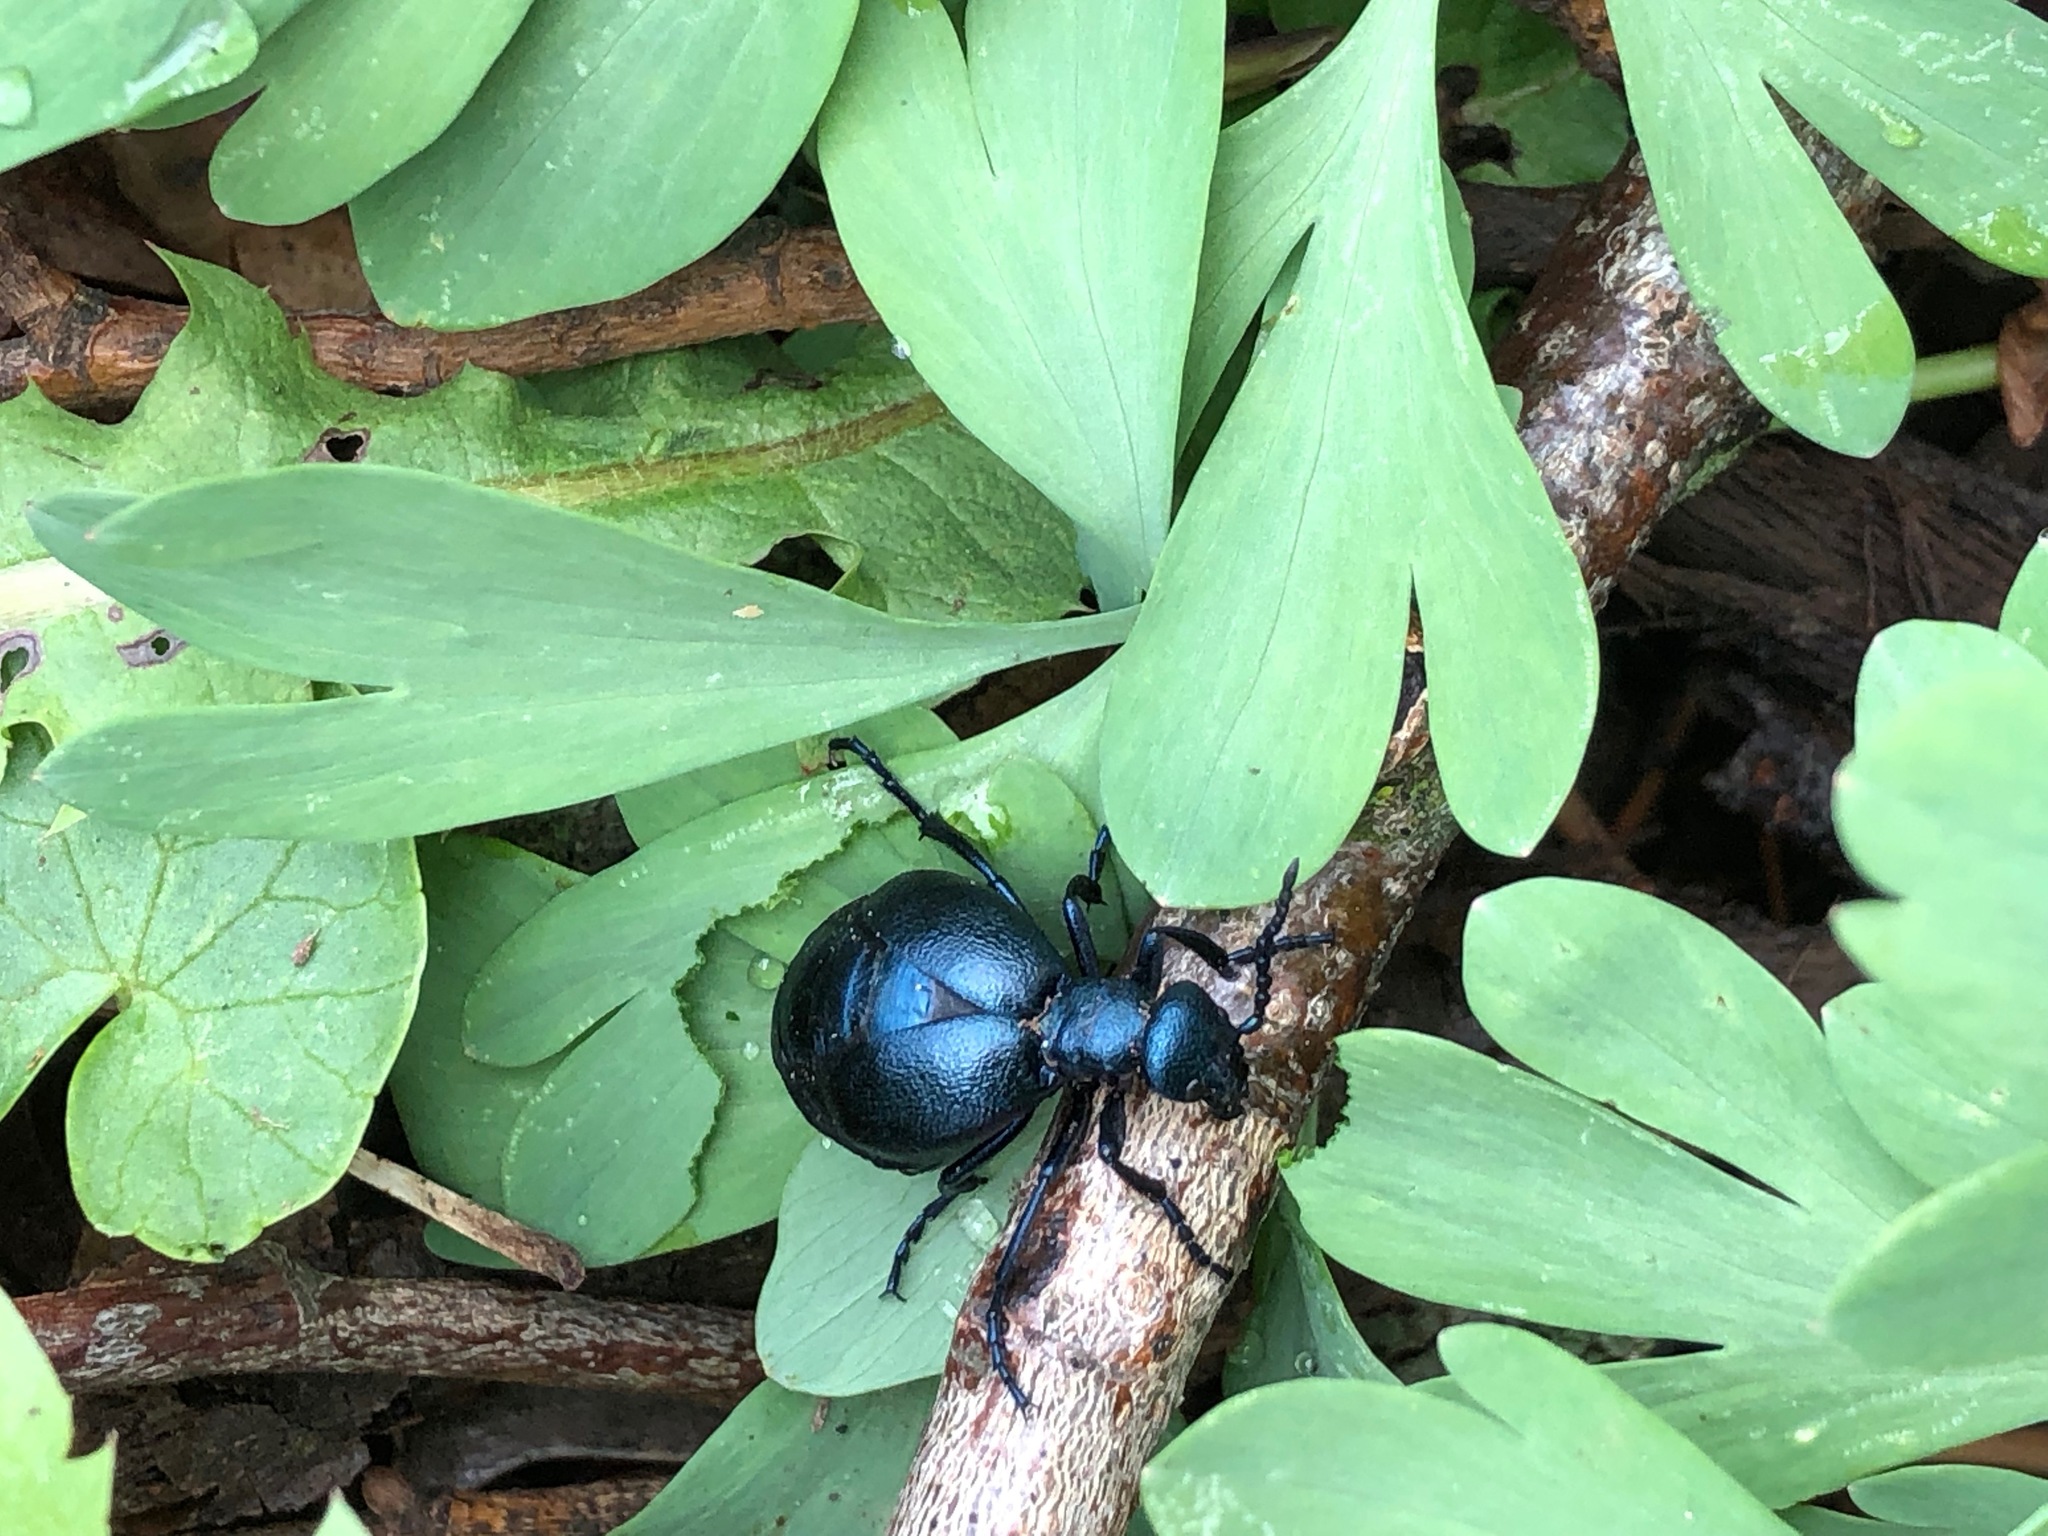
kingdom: Animalia
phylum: Arthropoda
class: Insecta
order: Coleoptera
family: Meloidae
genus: Meloe
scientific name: Meloe proscarabaeus
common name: Black oil-beetle
